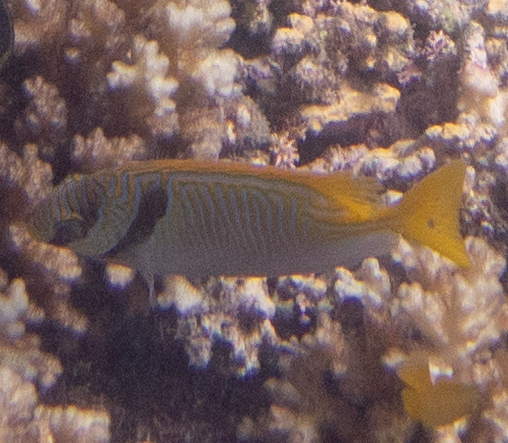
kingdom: Animalia
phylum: Chordata
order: Perciformes
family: Siganidae
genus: Siganus
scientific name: Siganus doliatus
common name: Barred spinefoot
